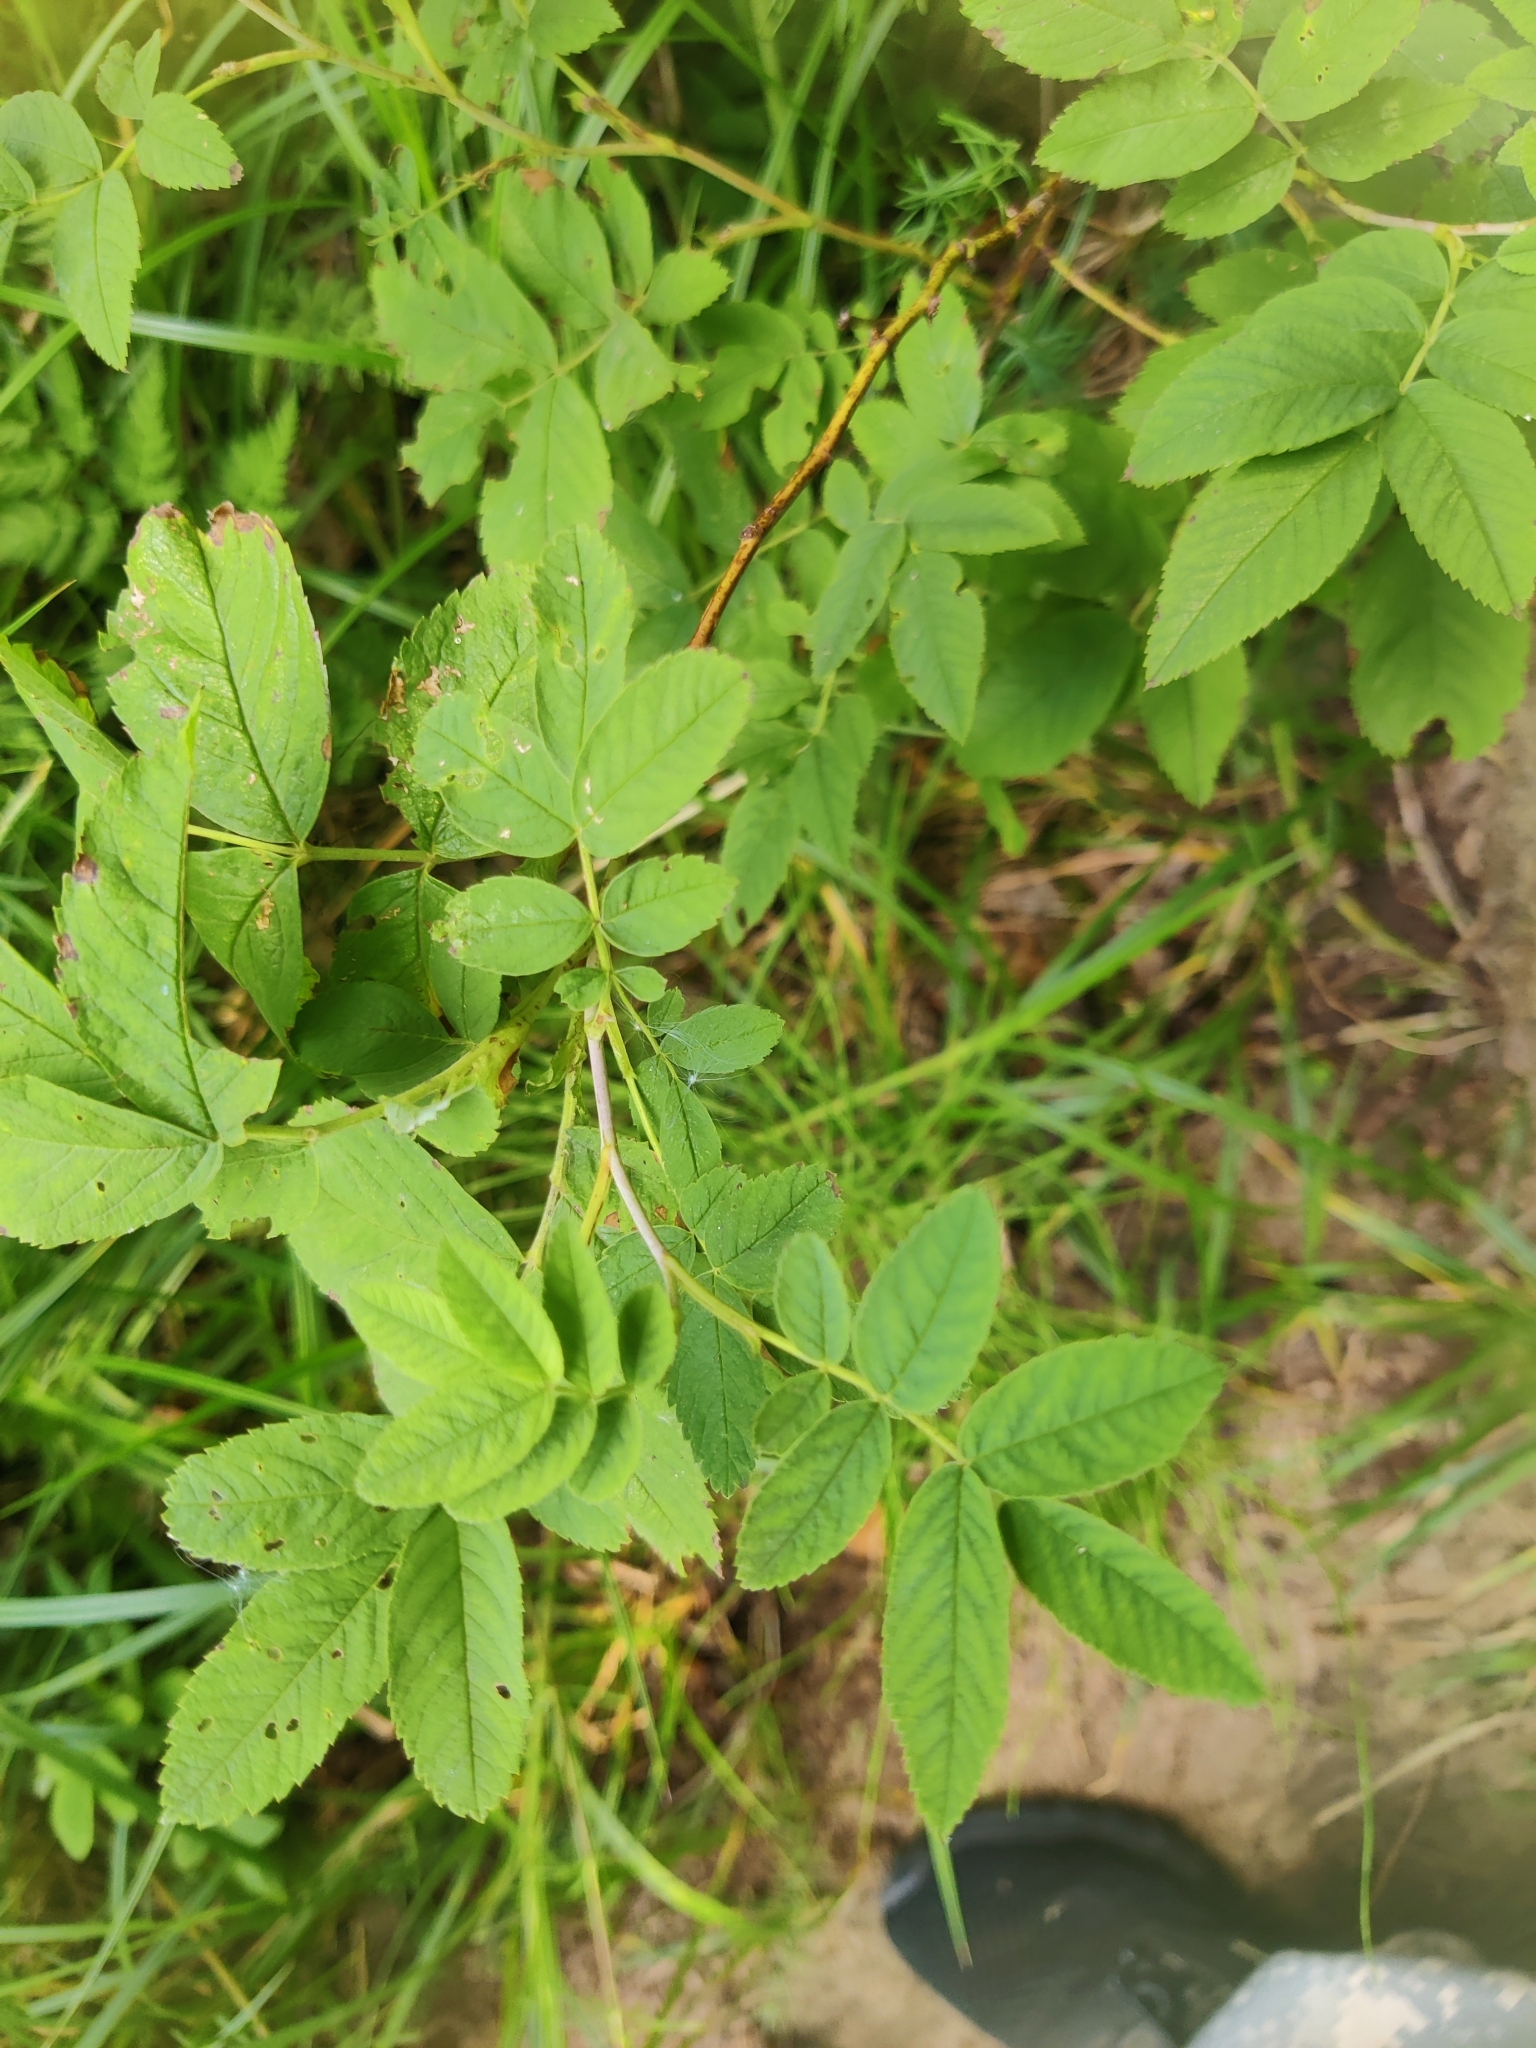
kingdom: Plantae
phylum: Tracheophyta
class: Magnoliopsida
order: Rosales
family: Rosaceae
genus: Rosa
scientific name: Rosa majalis
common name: Cinnamon rose
